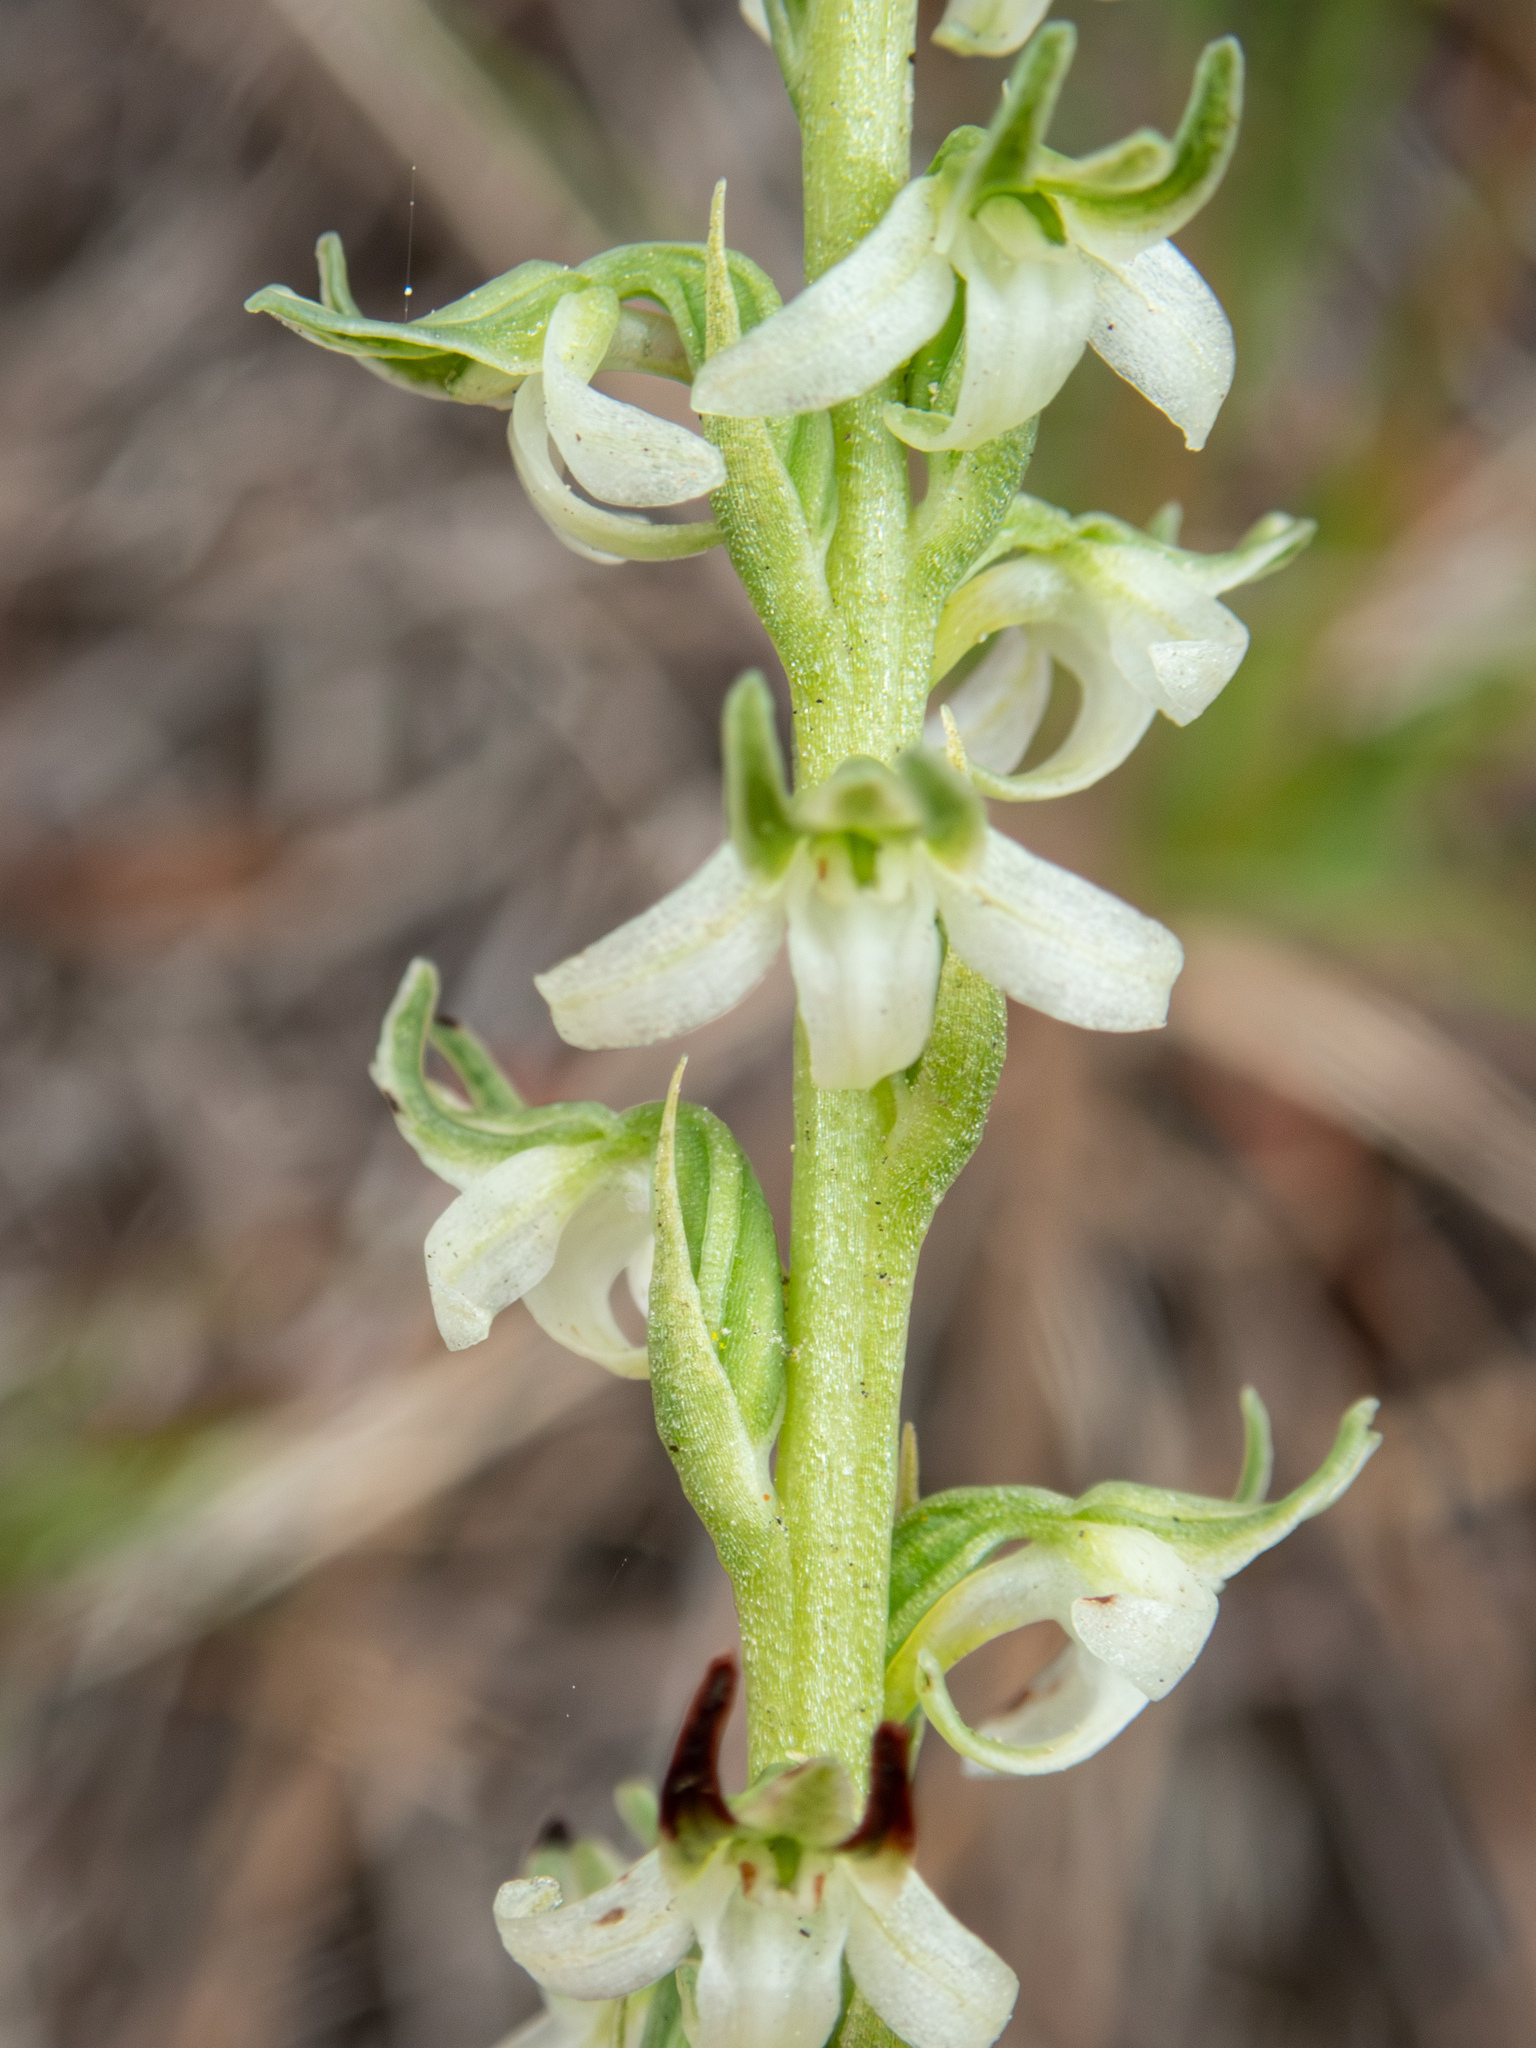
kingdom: Plantae
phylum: Tracheophyta
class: Liliopsida
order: Asparagales
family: Orchidaceae
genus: Platanthera
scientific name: Platanthera elegans
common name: Coast piperia
